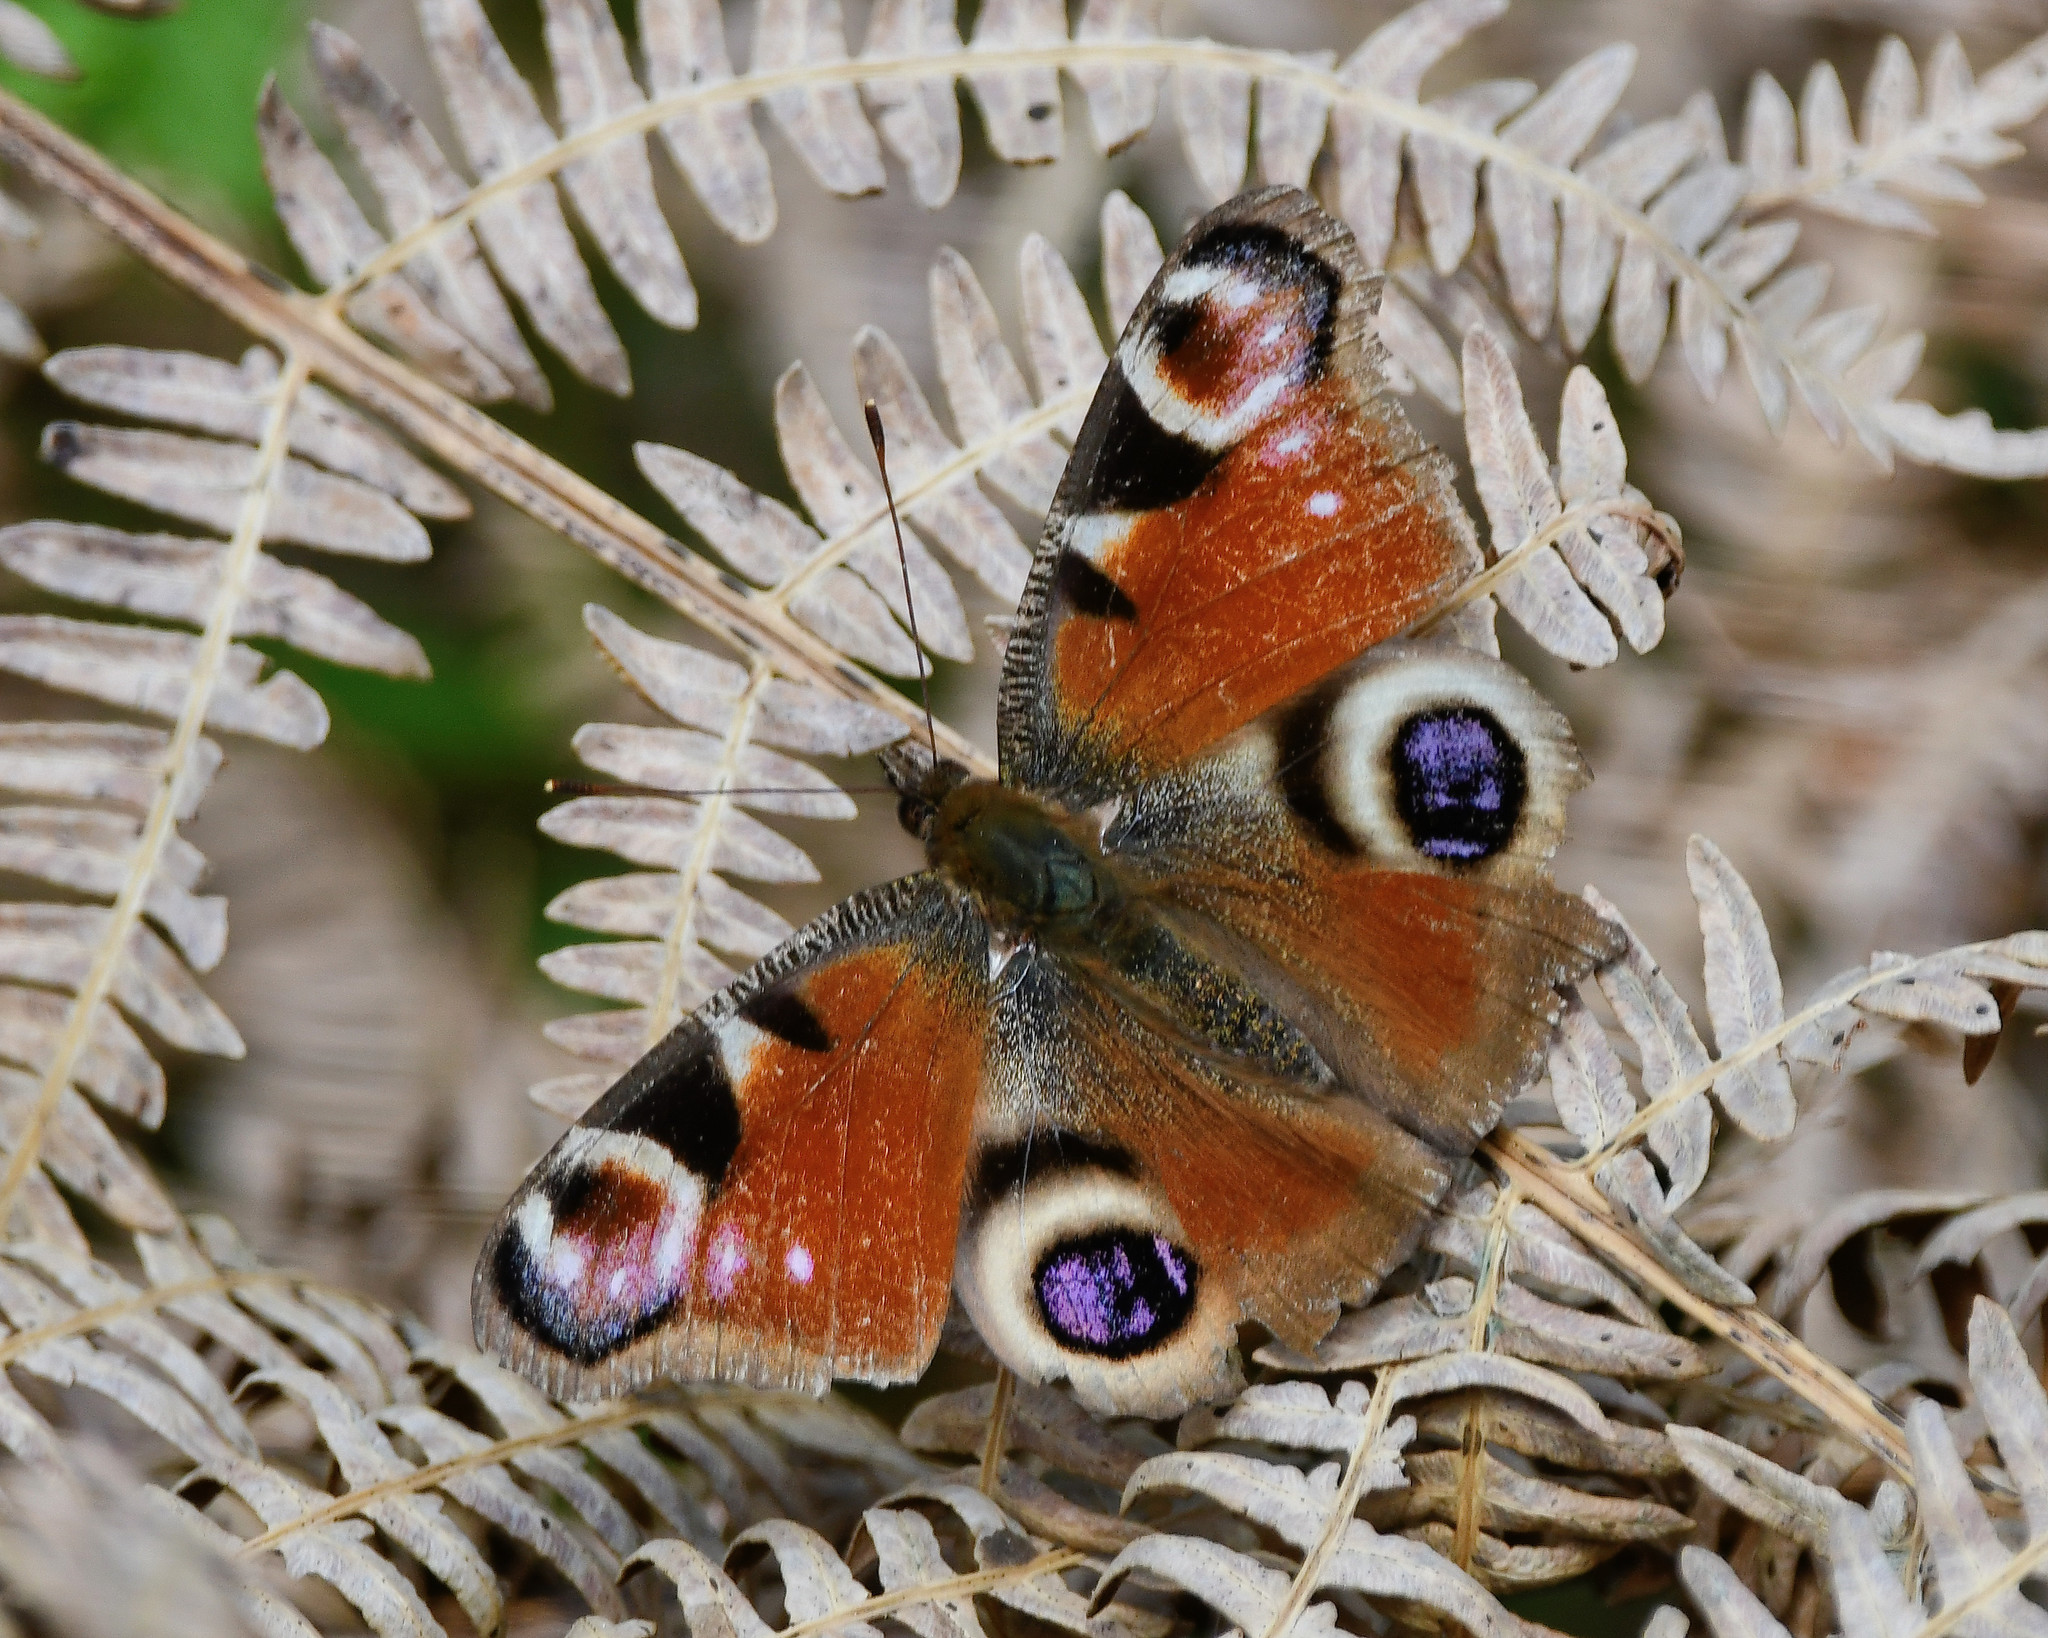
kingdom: Animalia
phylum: Arthropoda
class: Insecta
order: Lepidoptera
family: Nymphalidae
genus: Aglais
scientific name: Aglais io
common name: Peacock
